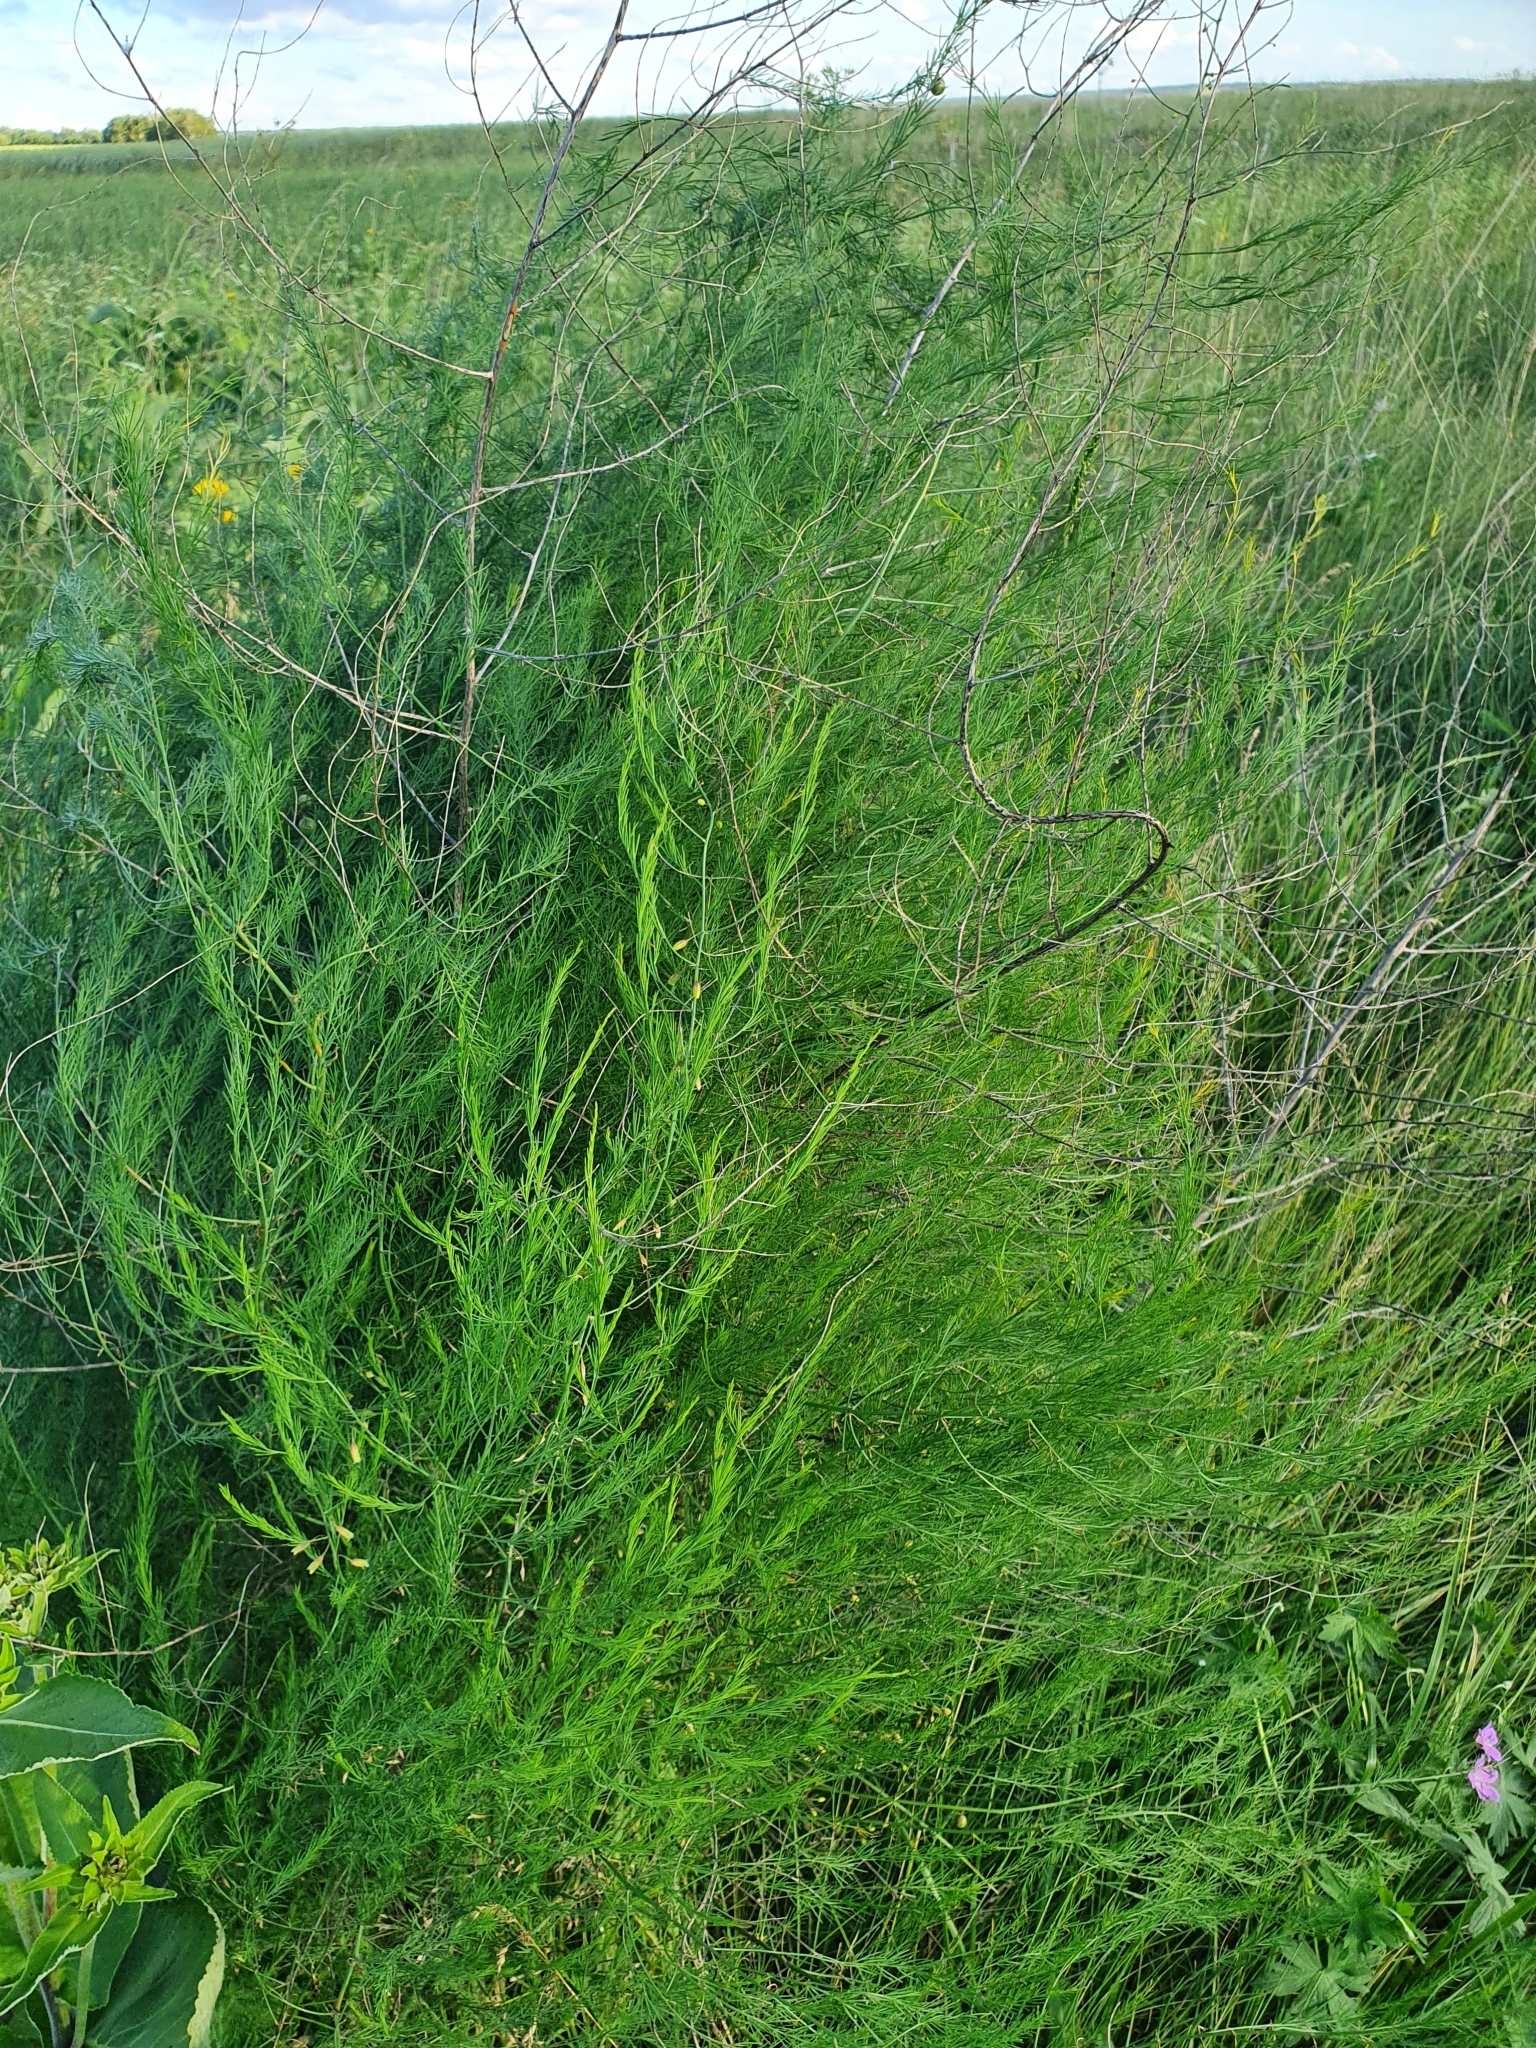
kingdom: Plantae
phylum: Tracheophyta
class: Liliopsida
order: Asparagales
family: Asparagaceae
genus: Asparagus
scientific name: Asparagus officinalis
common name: Garden asparagus
